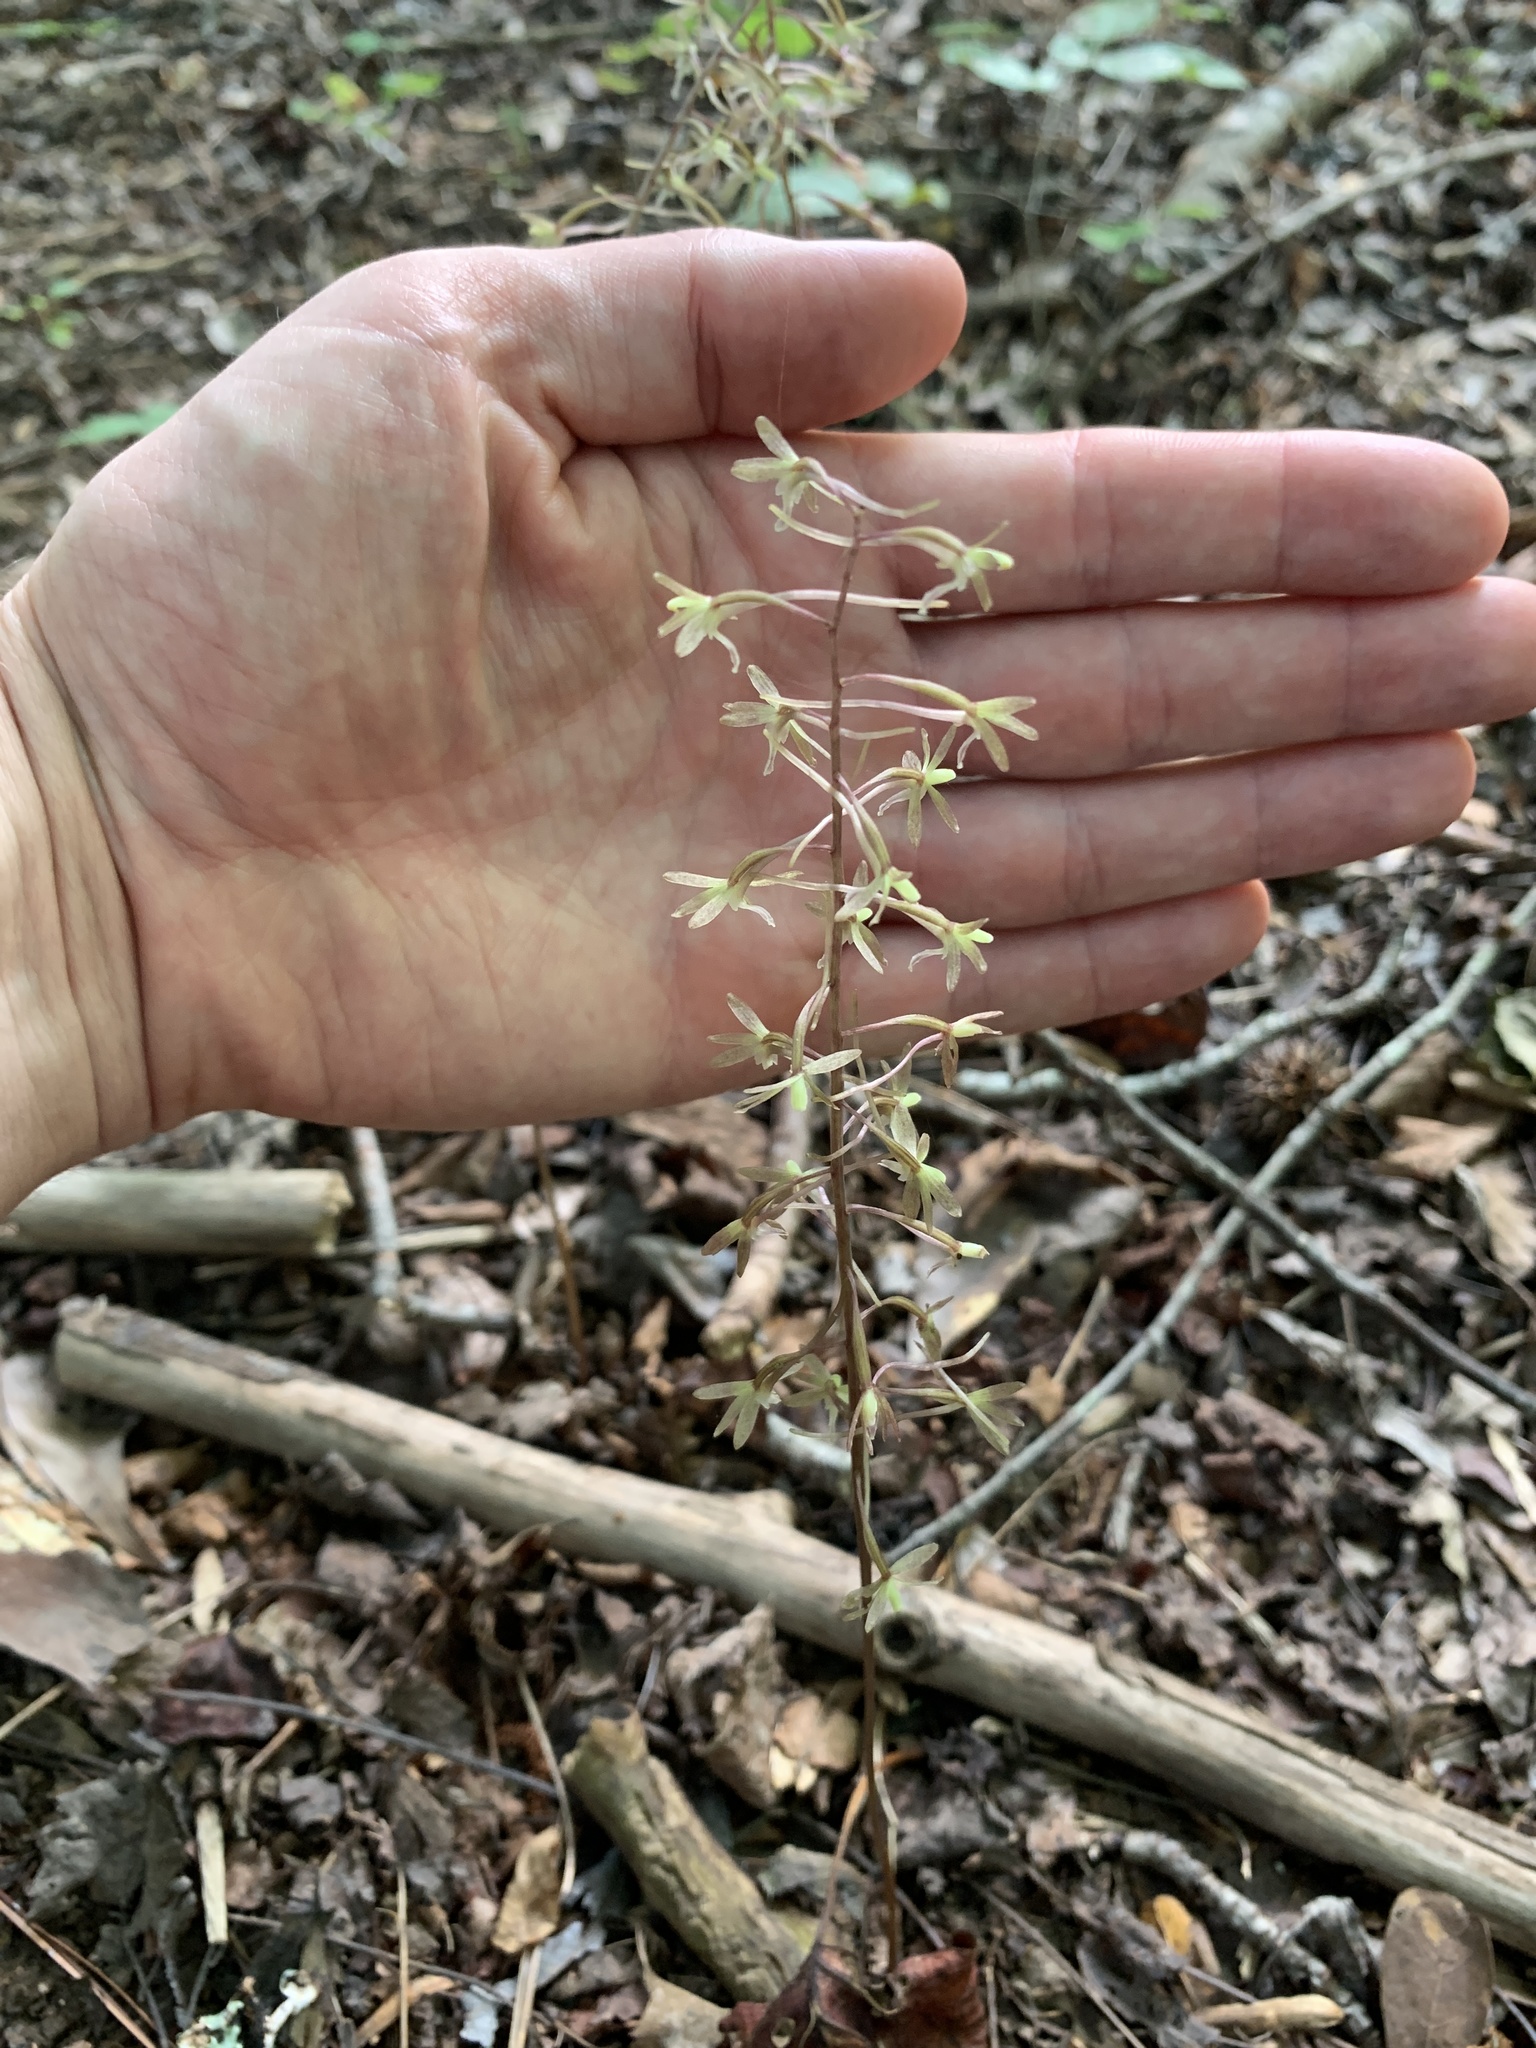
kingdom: Plantae
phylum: Tracheophyta
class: Liliopsida
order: Asparagales
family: Orchidaceae
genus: Tipularia
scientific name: Tipularia discolor
